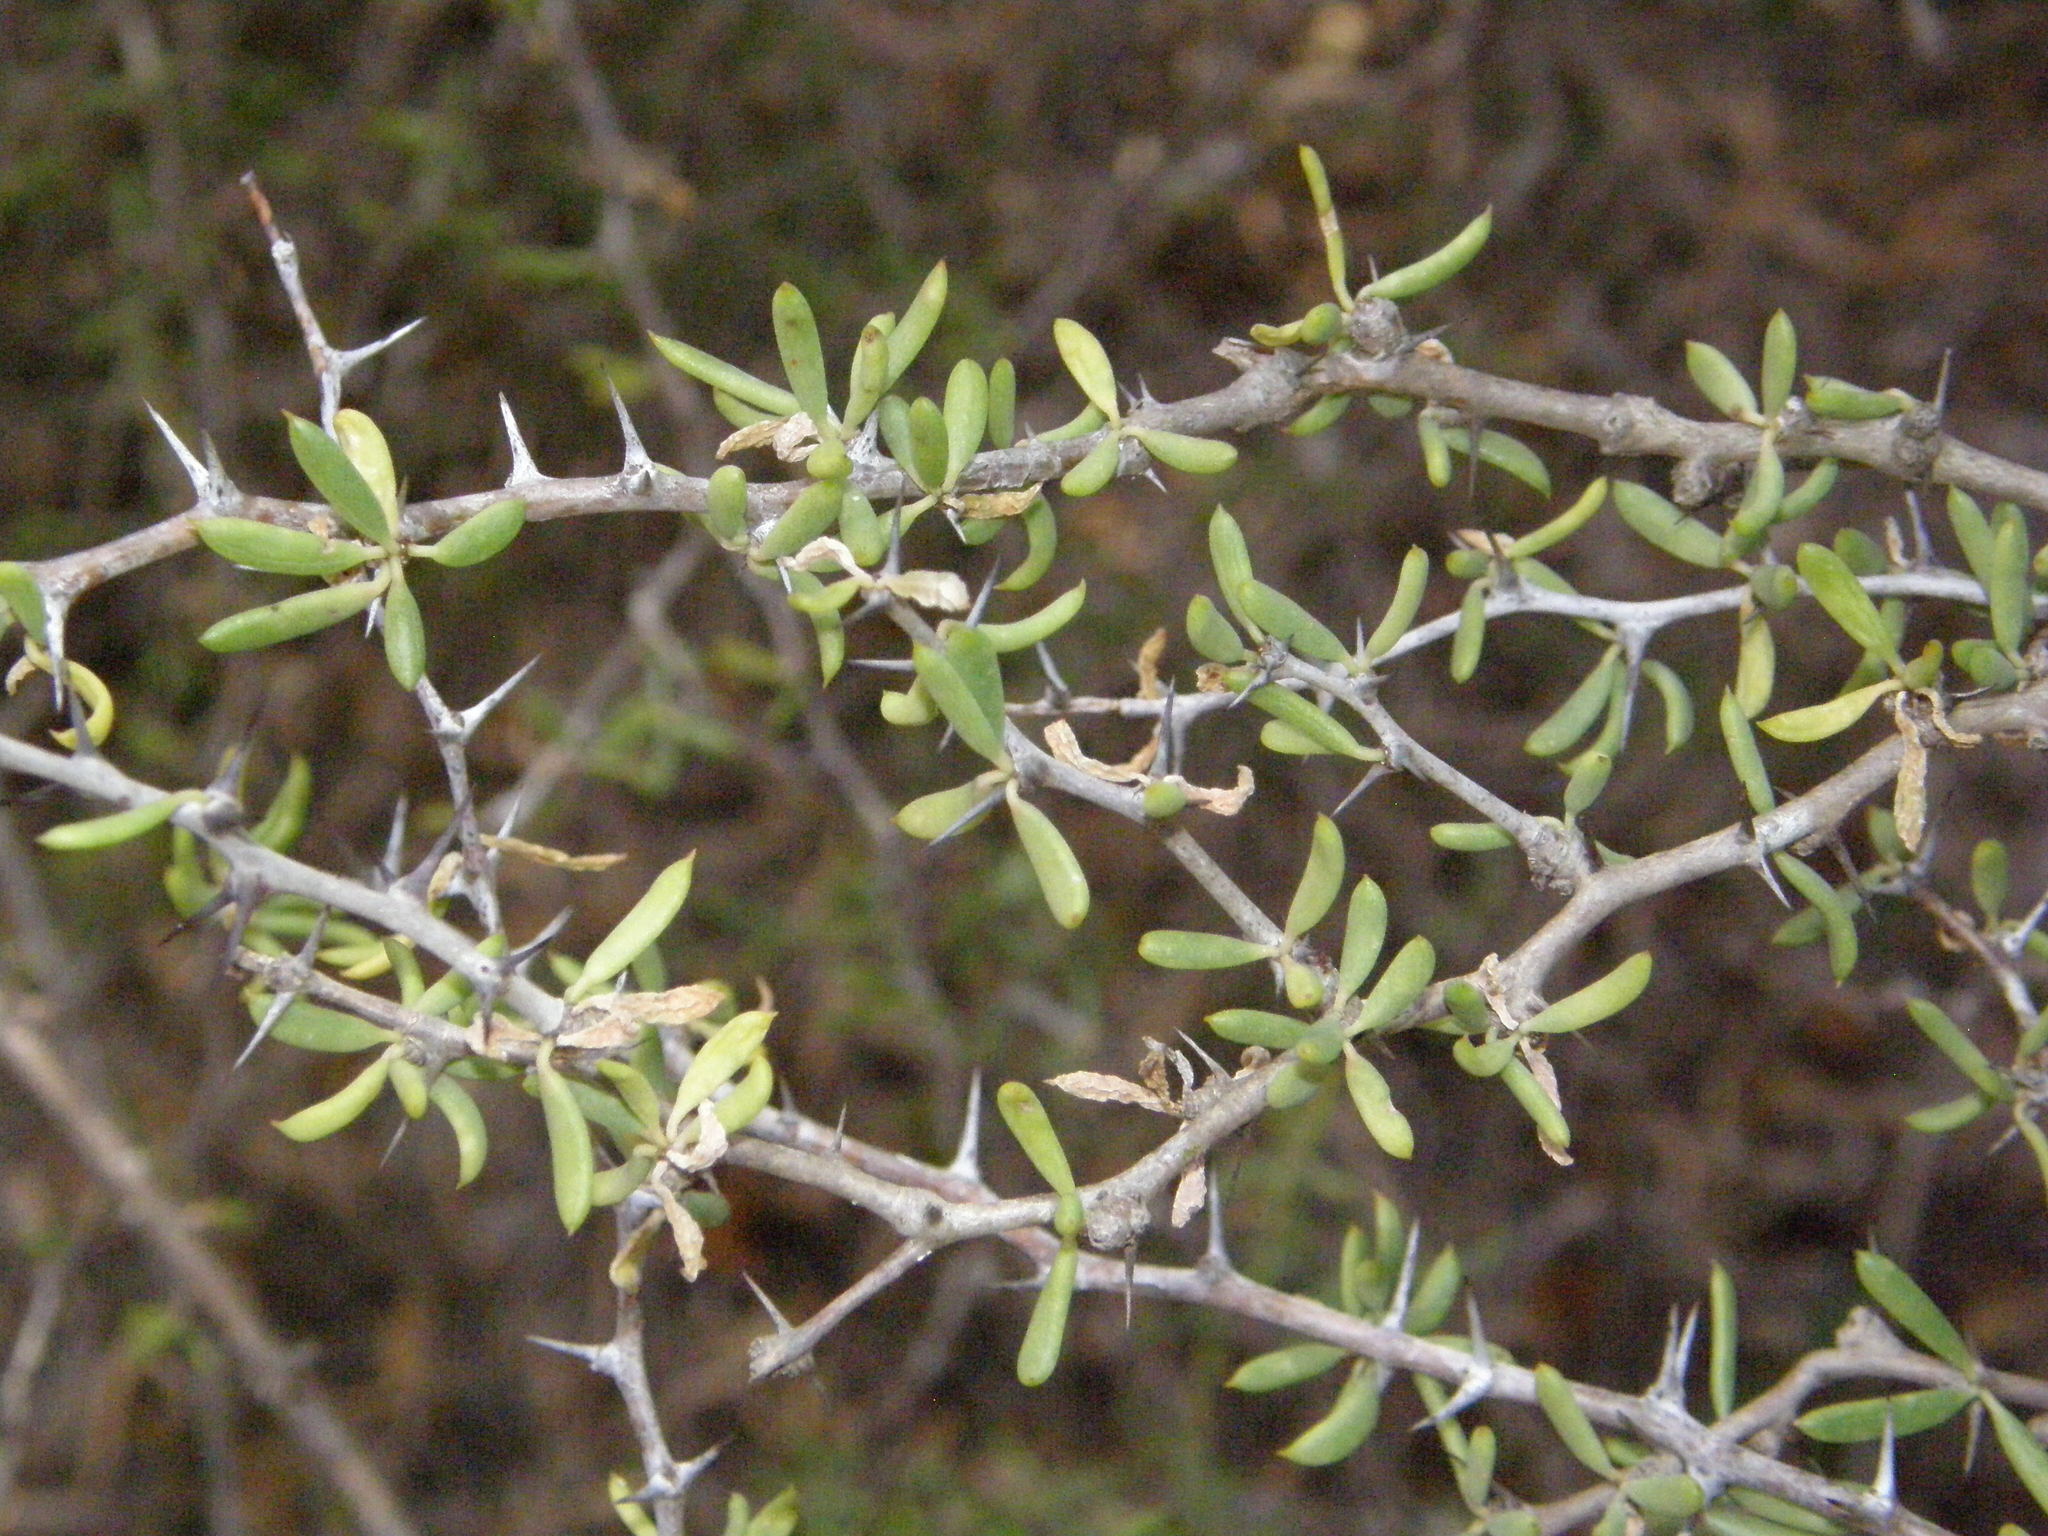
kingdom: Plantae
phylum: Tracheophyta
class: Magnoliopsida
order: Caryophyllales
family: Didiereaceae
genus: Alluaudiopsis
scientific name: Alluaudiopsis marnieriana
